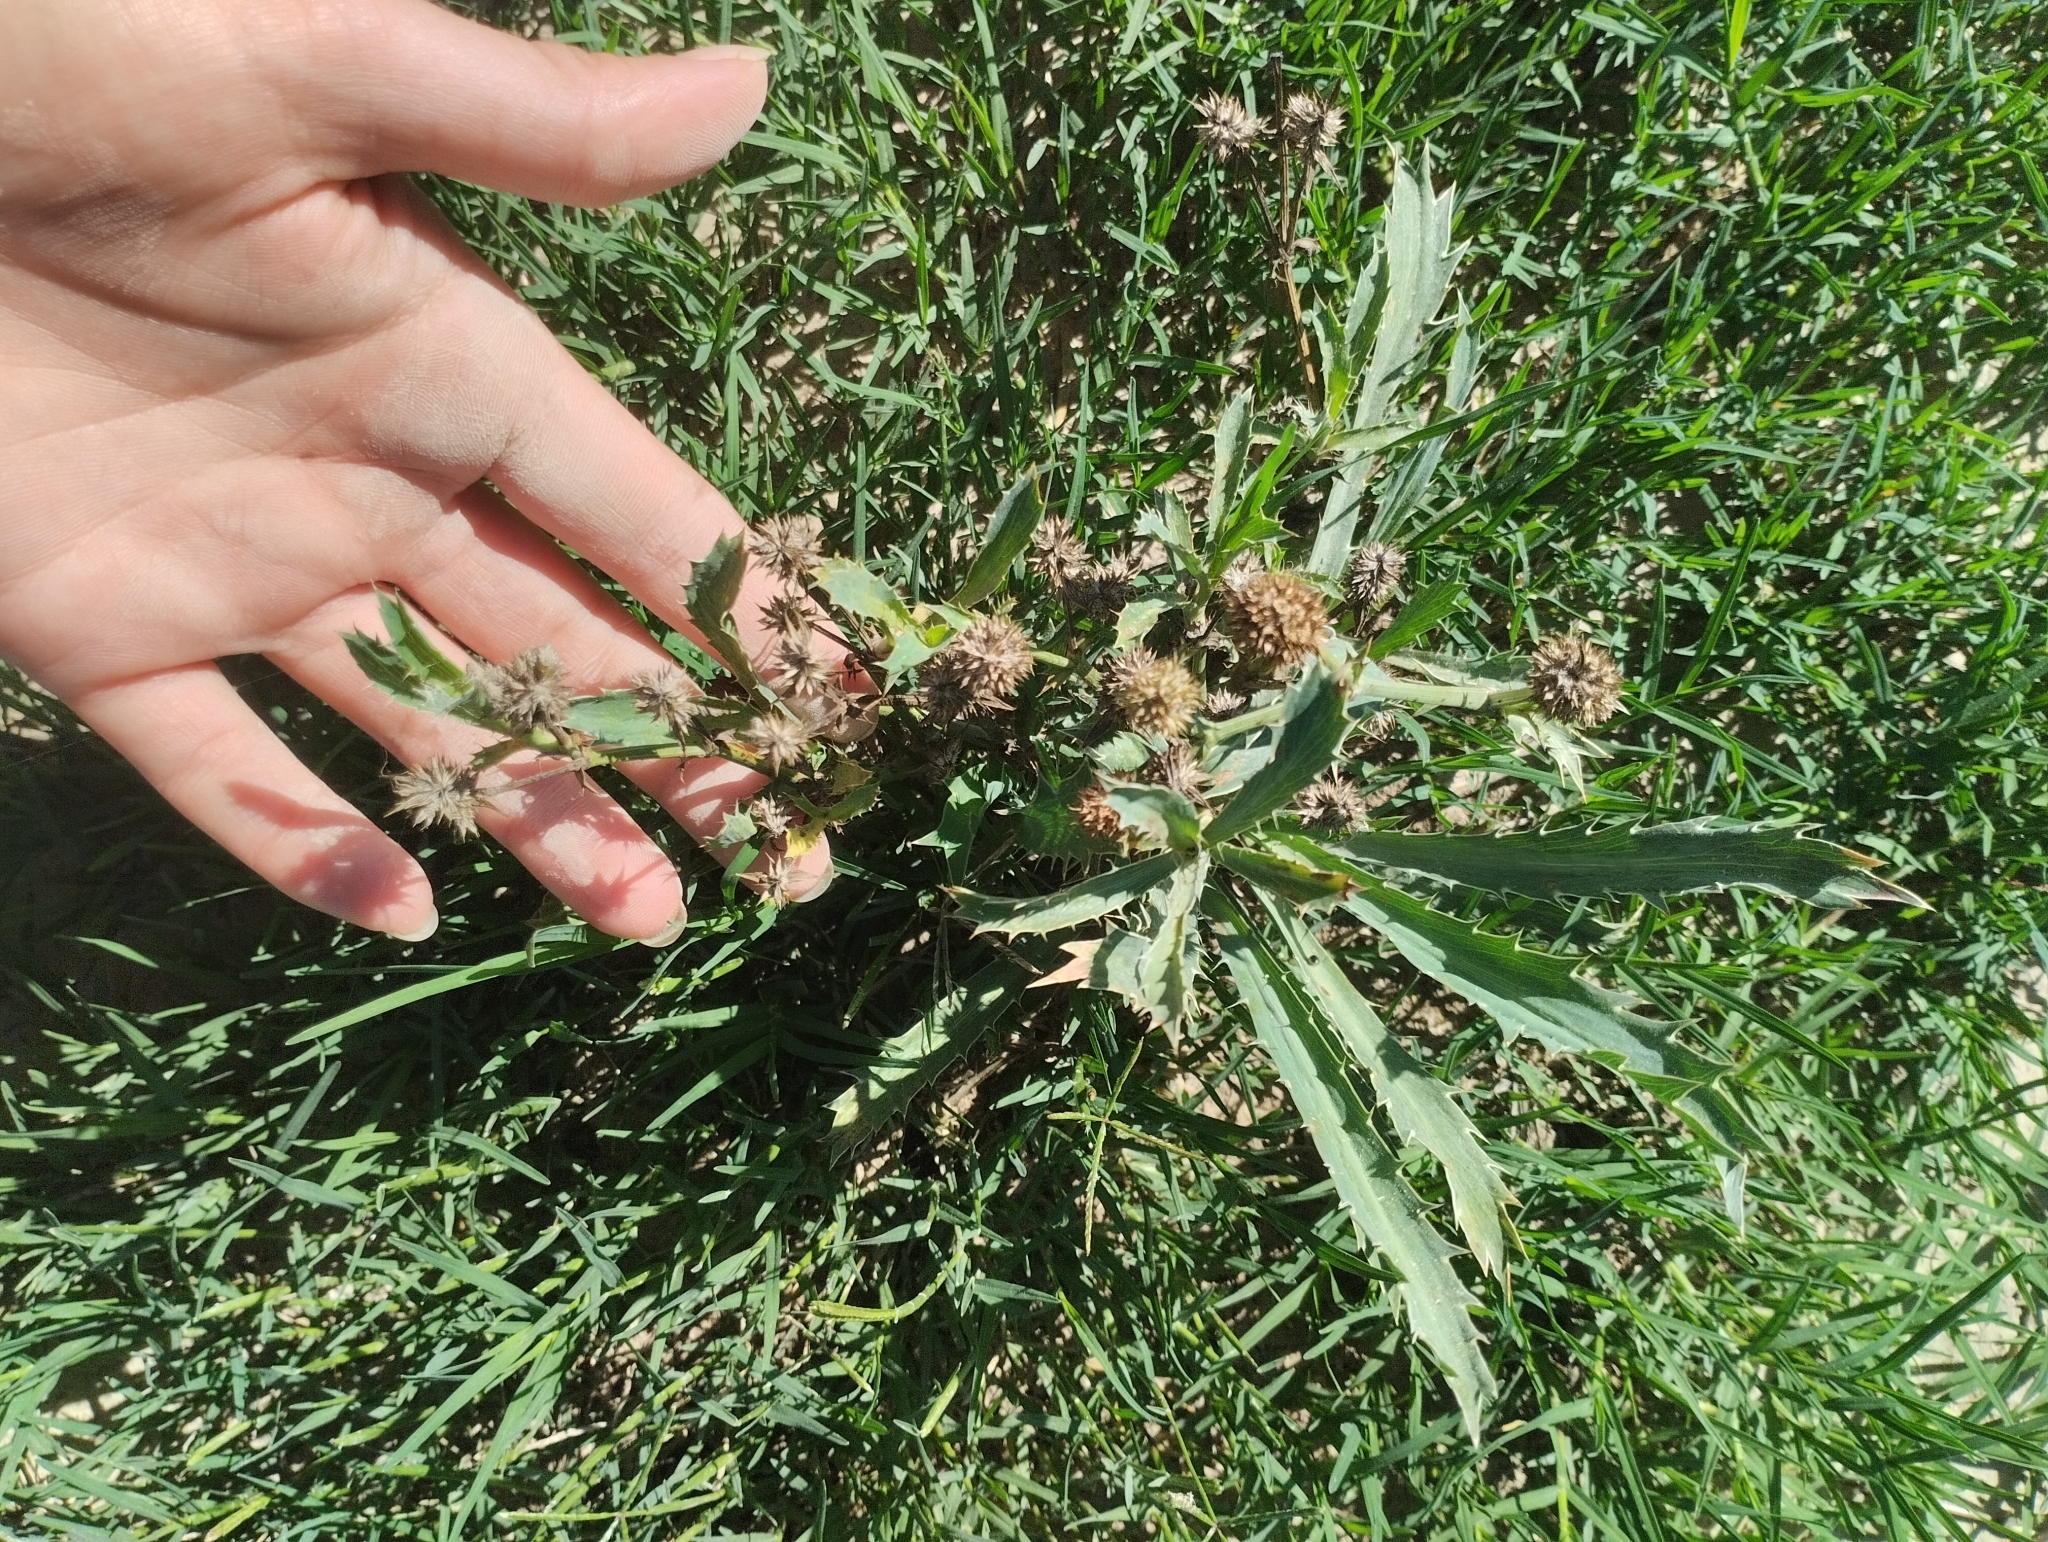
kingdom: Plantae
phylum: Tracheophyta
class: Magnoliopsida
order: Apiales
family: Apiaceae
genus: Eryngium
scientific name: Eryngium coronatum
